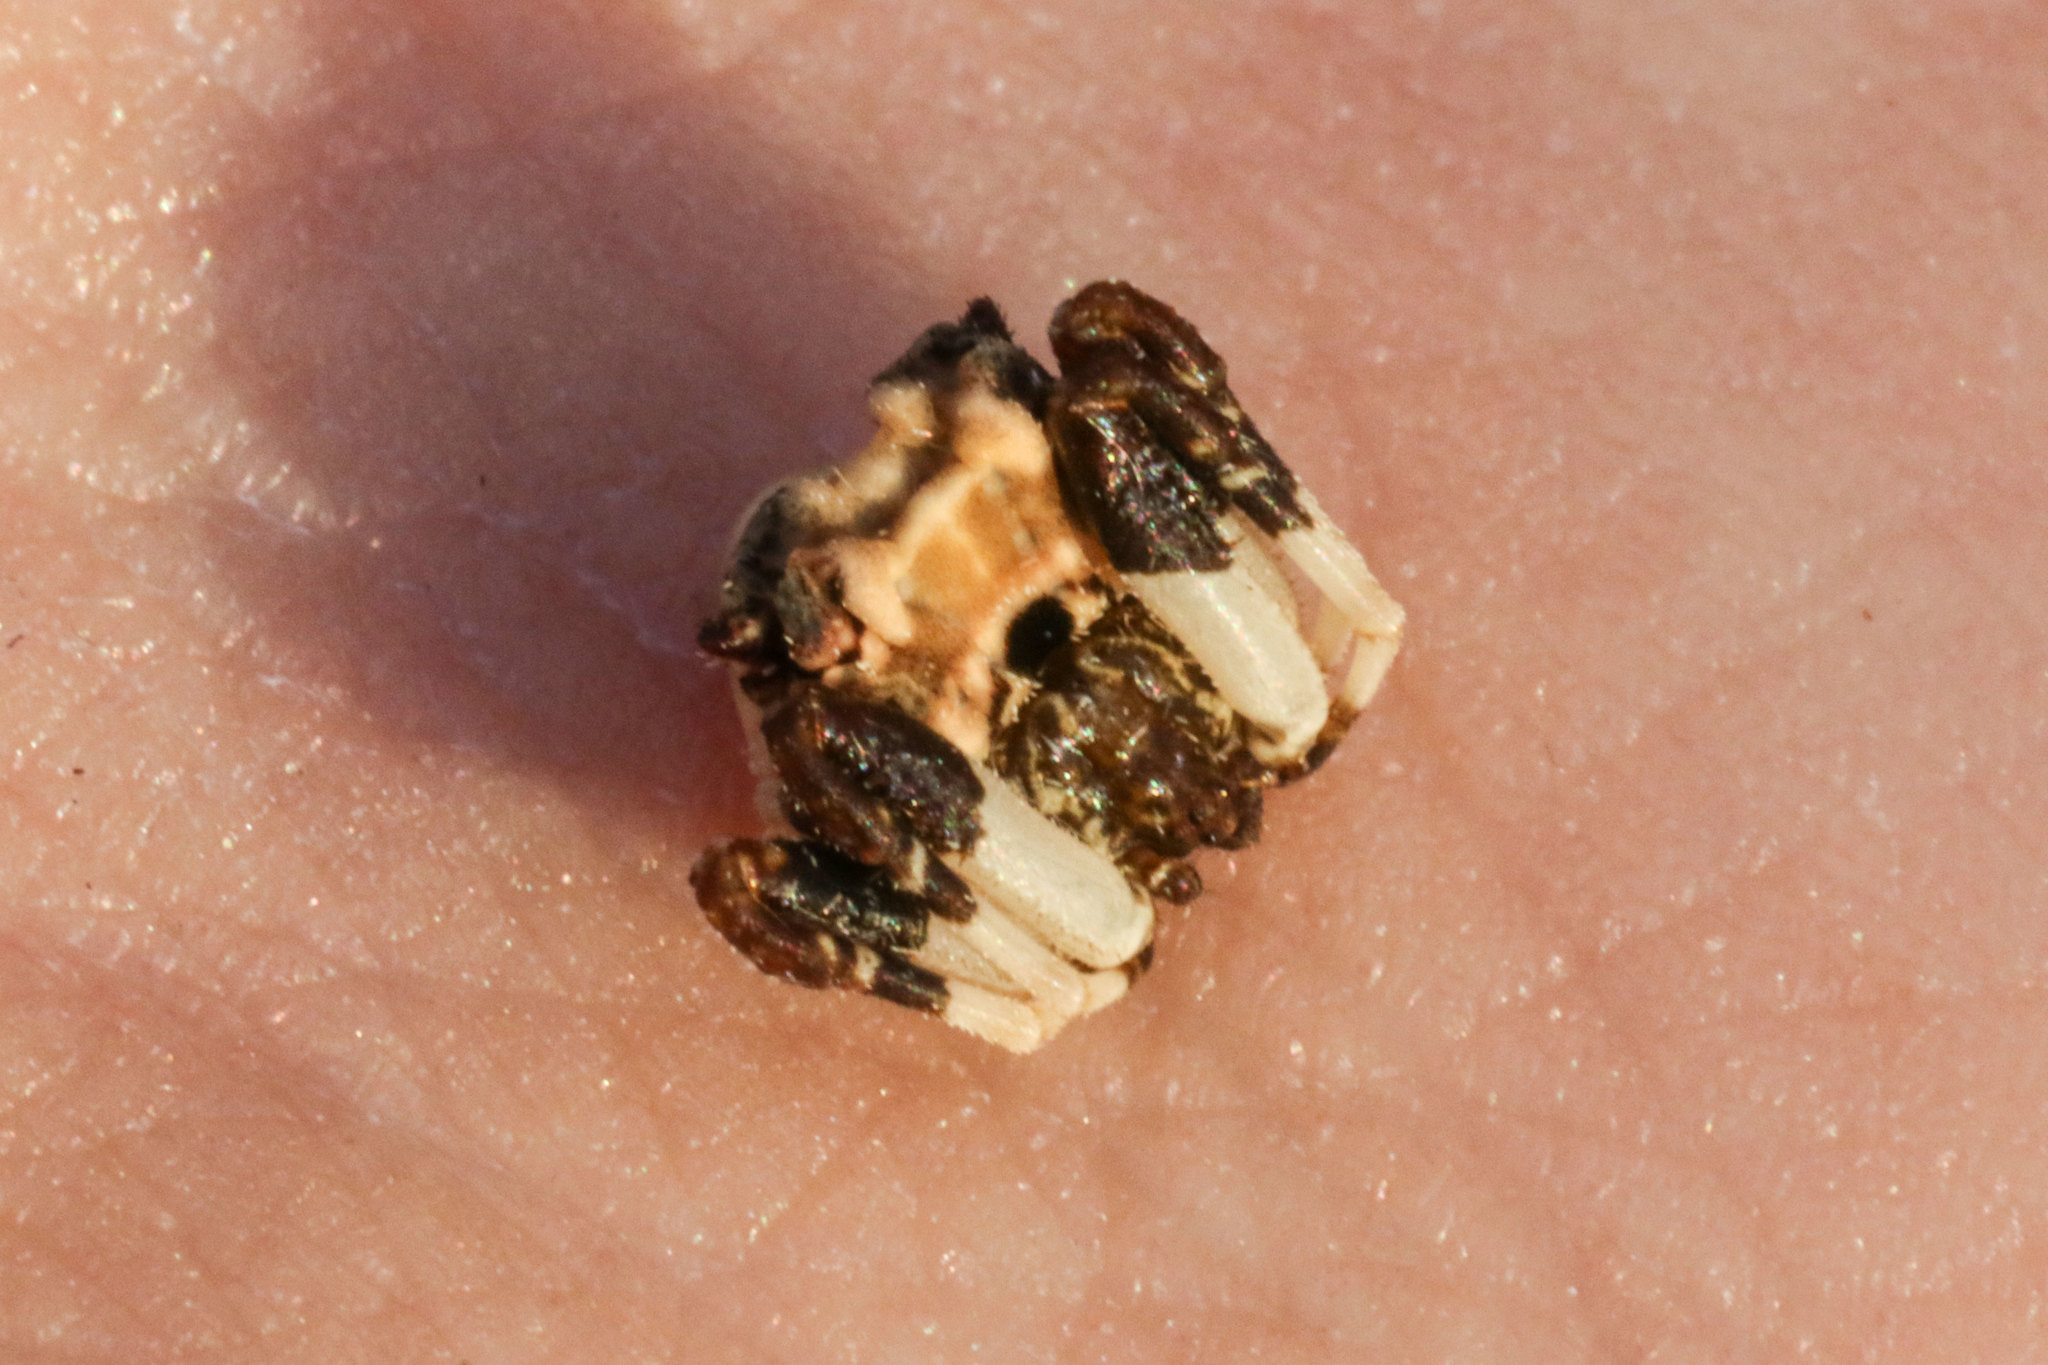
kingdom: Animalia
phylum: Arthropoda
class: Arachnida
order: Araneae
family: Araneidae
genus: Celaenia
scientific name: Celaenia excavata
